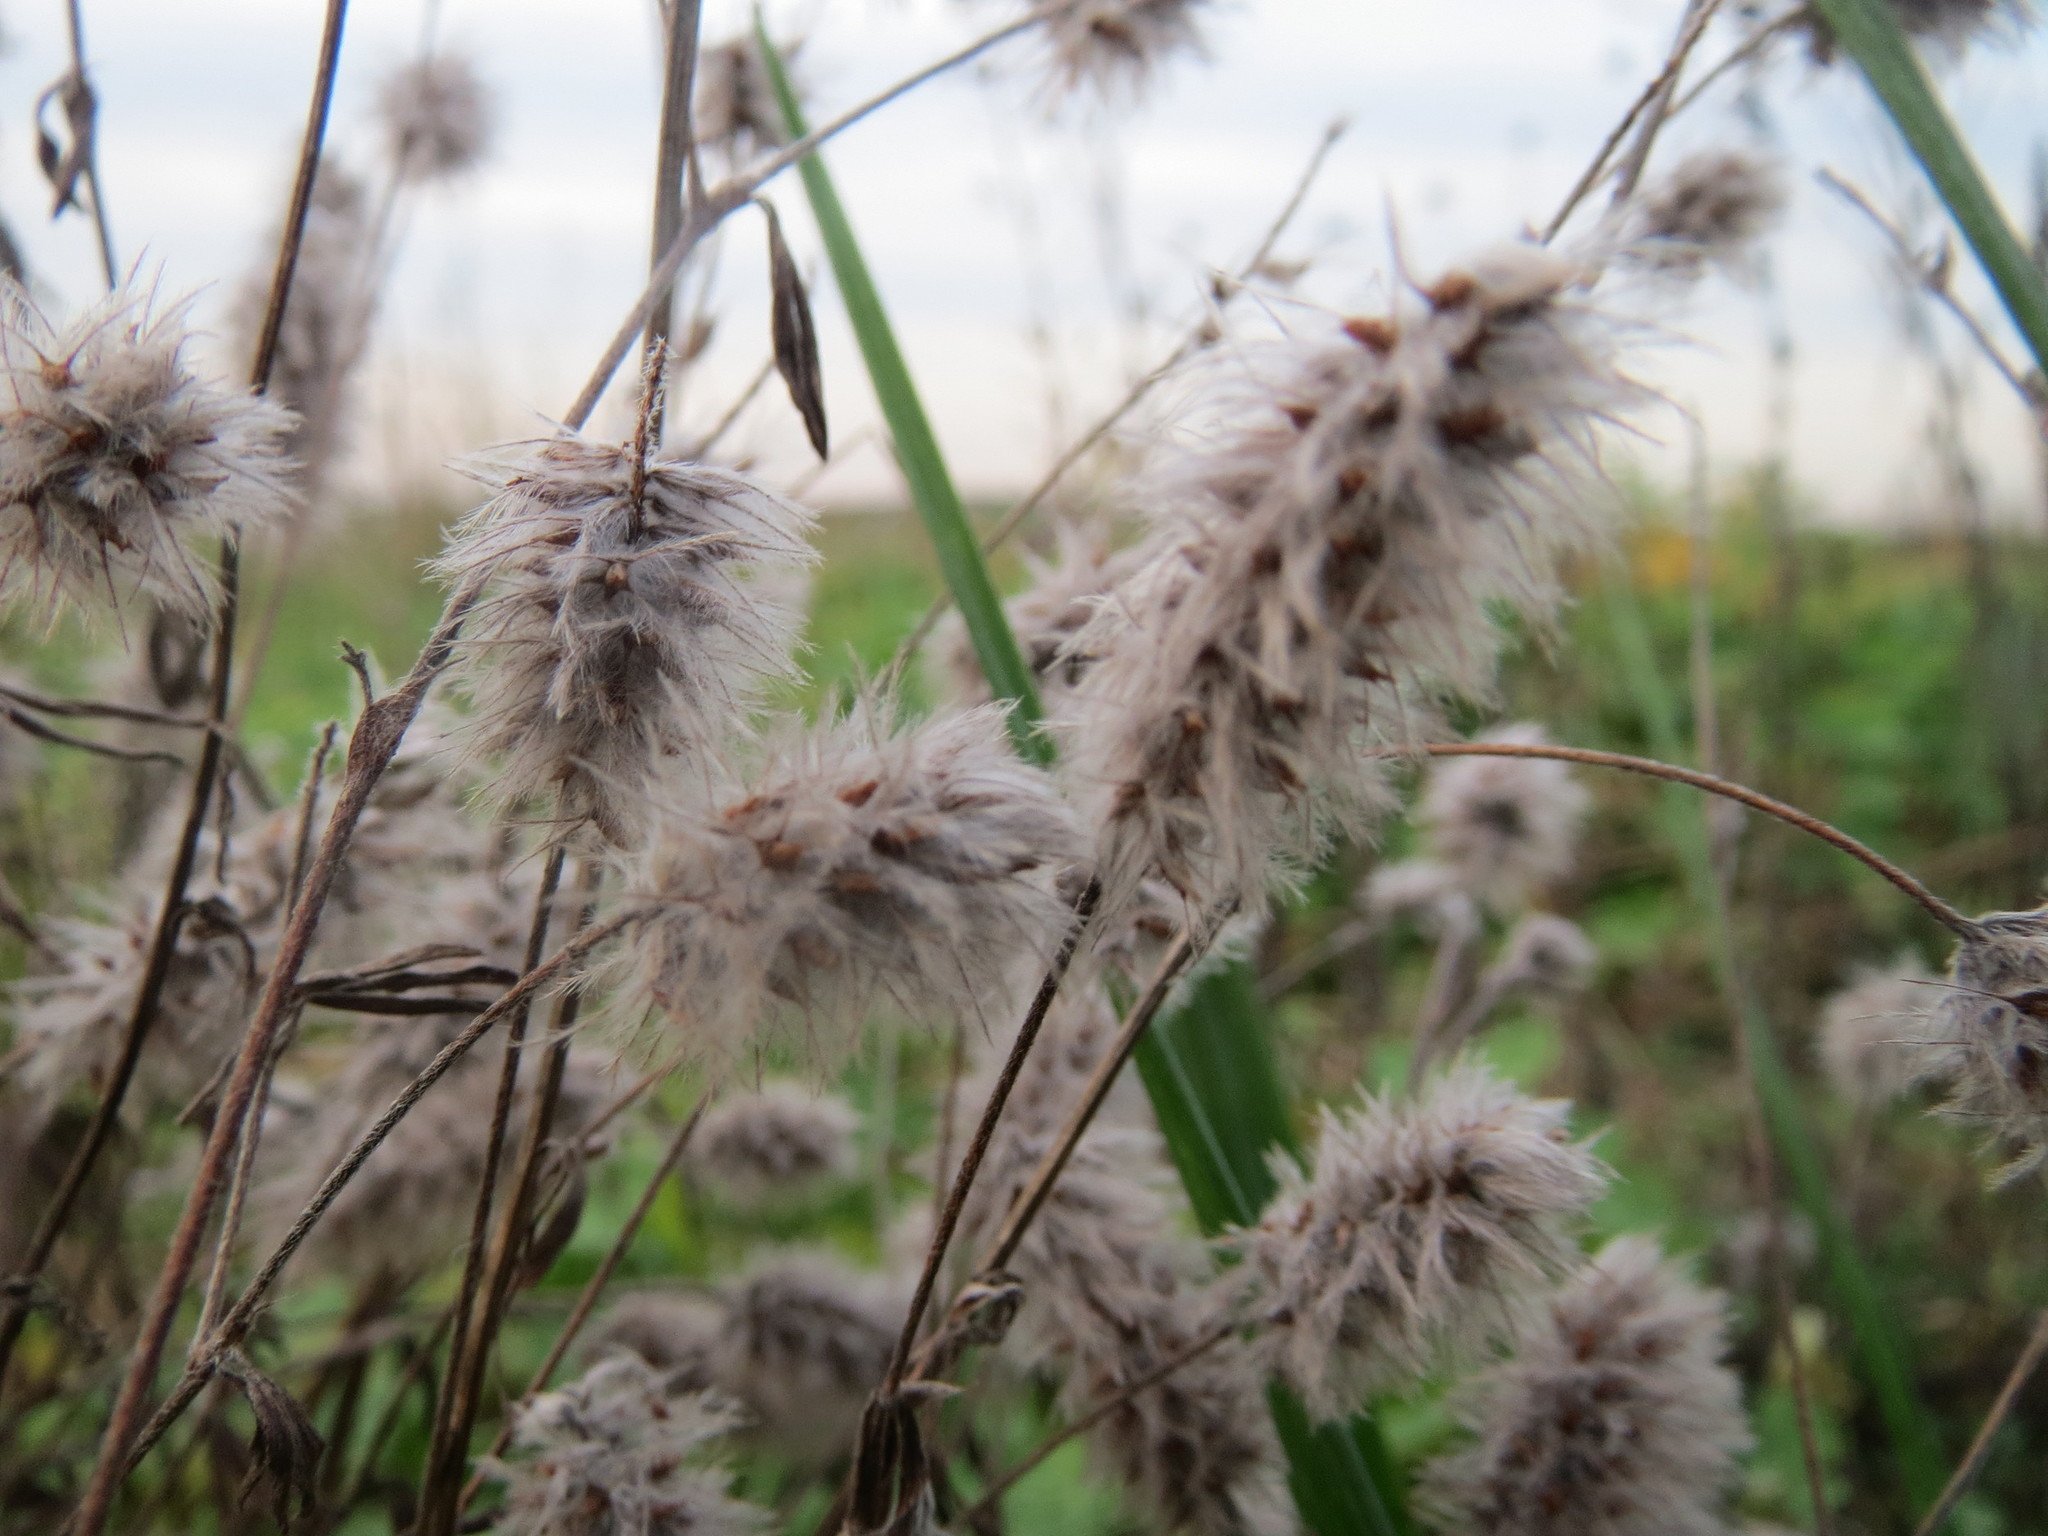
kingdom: Plantae
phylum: Tracheophyta
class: Magnoliopsida
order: Fabales
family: Fabaceae
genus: Trifolium
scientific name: Trifolium arvense
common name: Hare's-foot clover
